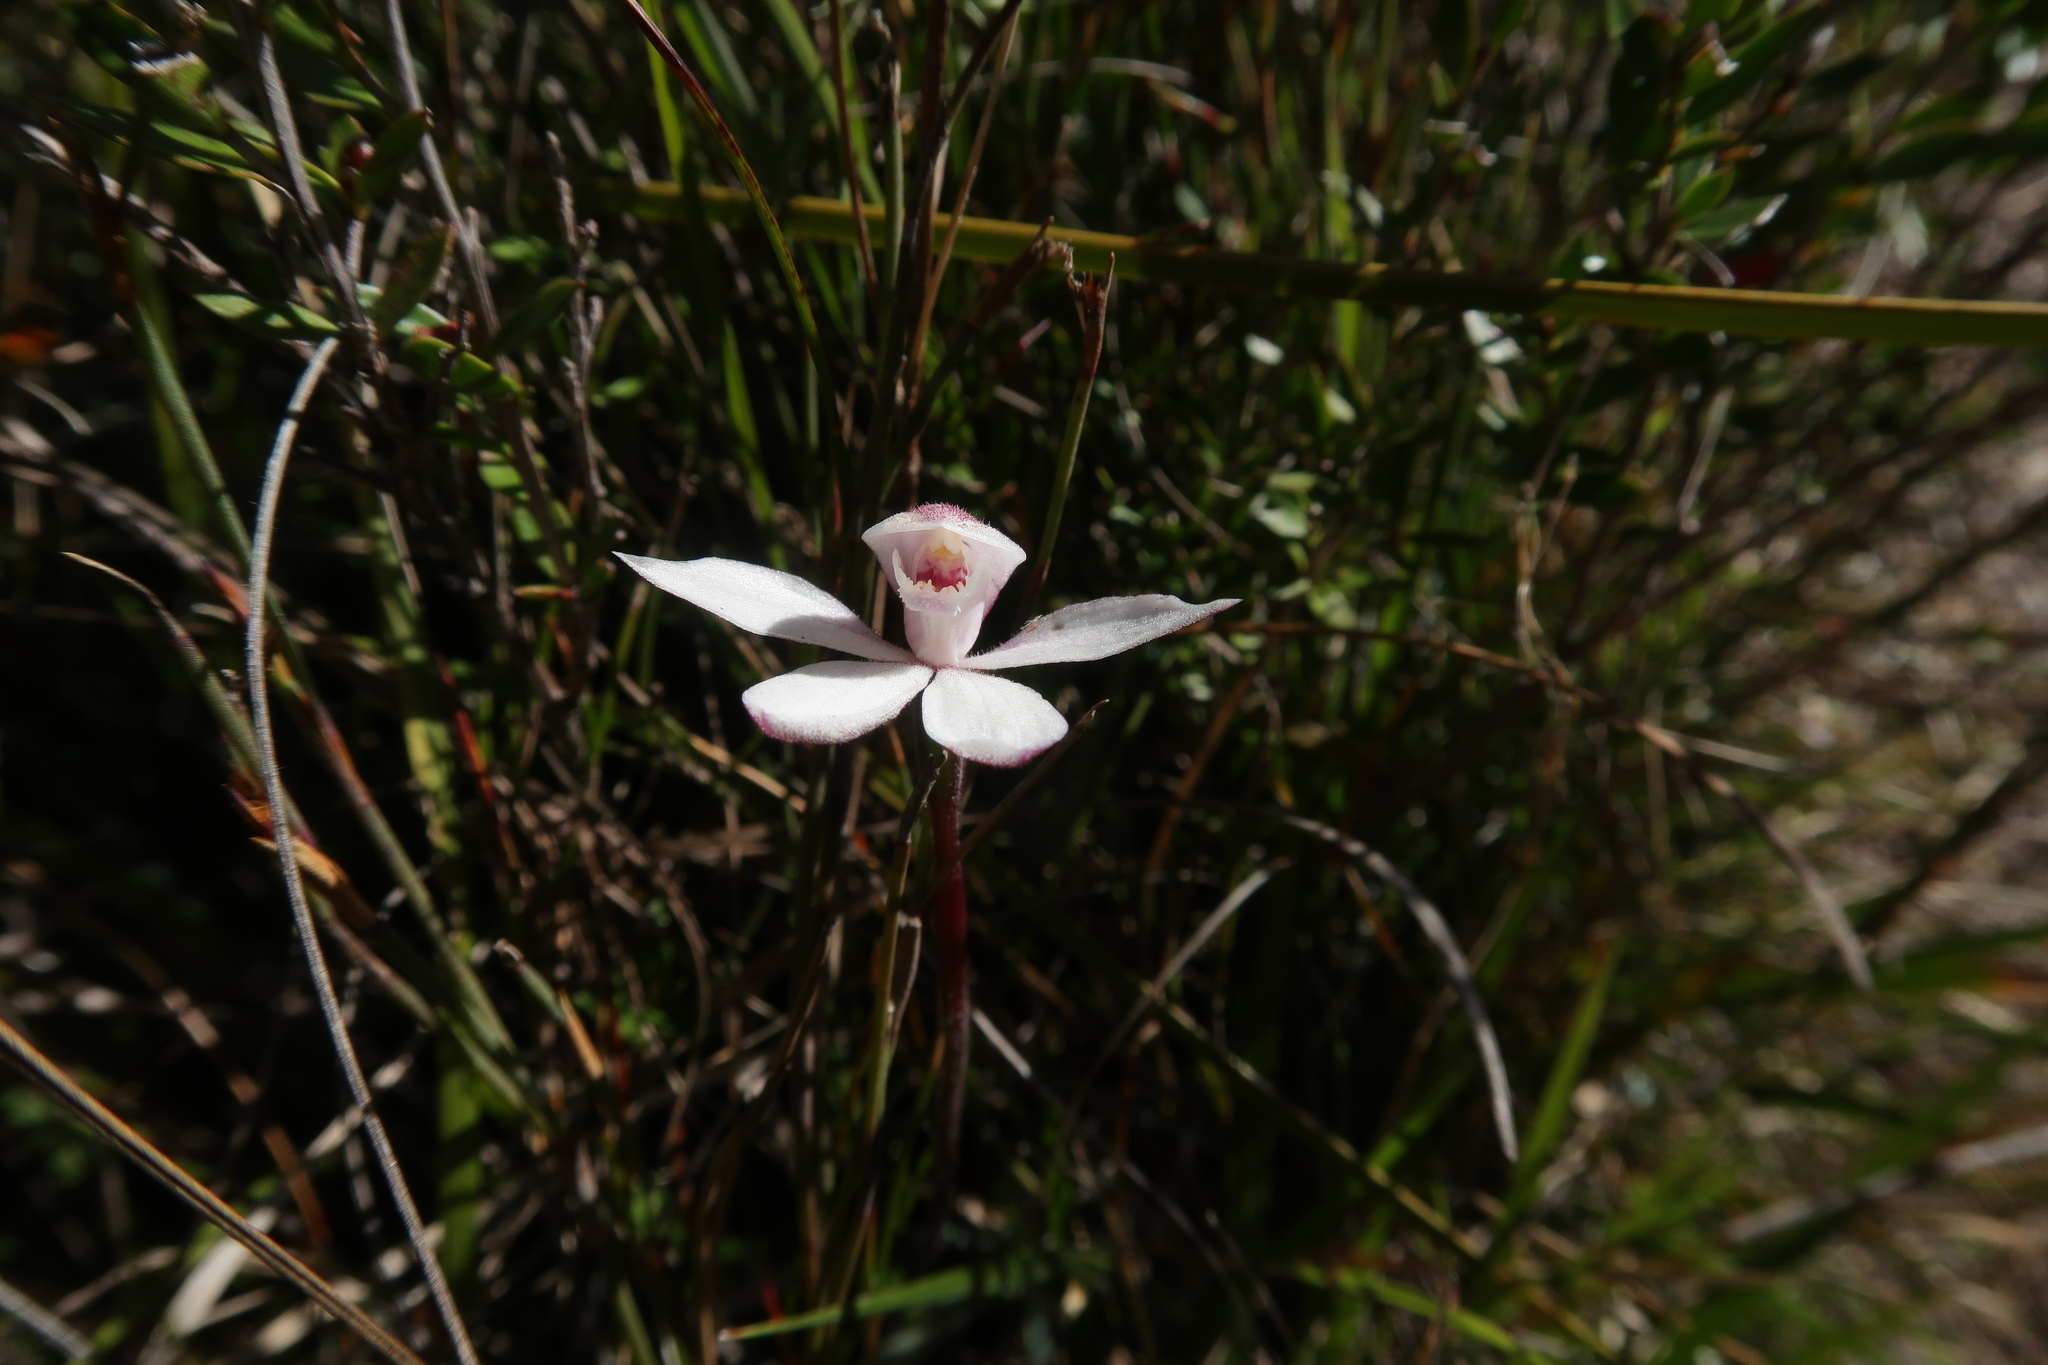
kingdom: Plantae
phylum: Tracheophyta
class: Liliopsida
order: Asparagales
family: Orchidaceae
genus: Caladenia
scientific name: Caladenia alpina
